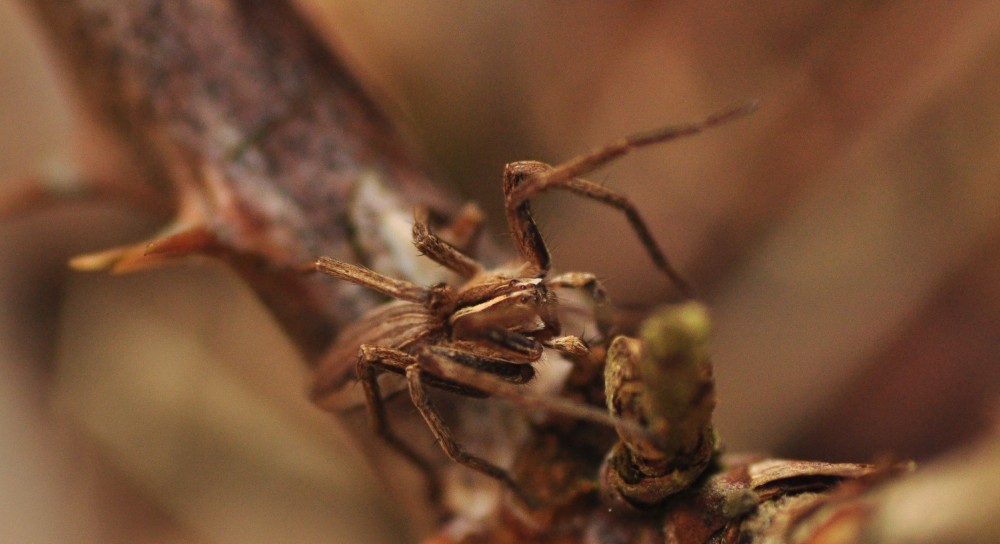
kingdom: Animalia
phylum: Arthropoda
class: Arachnida
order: Araneae
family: Pisauridae
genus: Pisaura
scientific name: Pisaura mirabilis
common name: Tent spider
